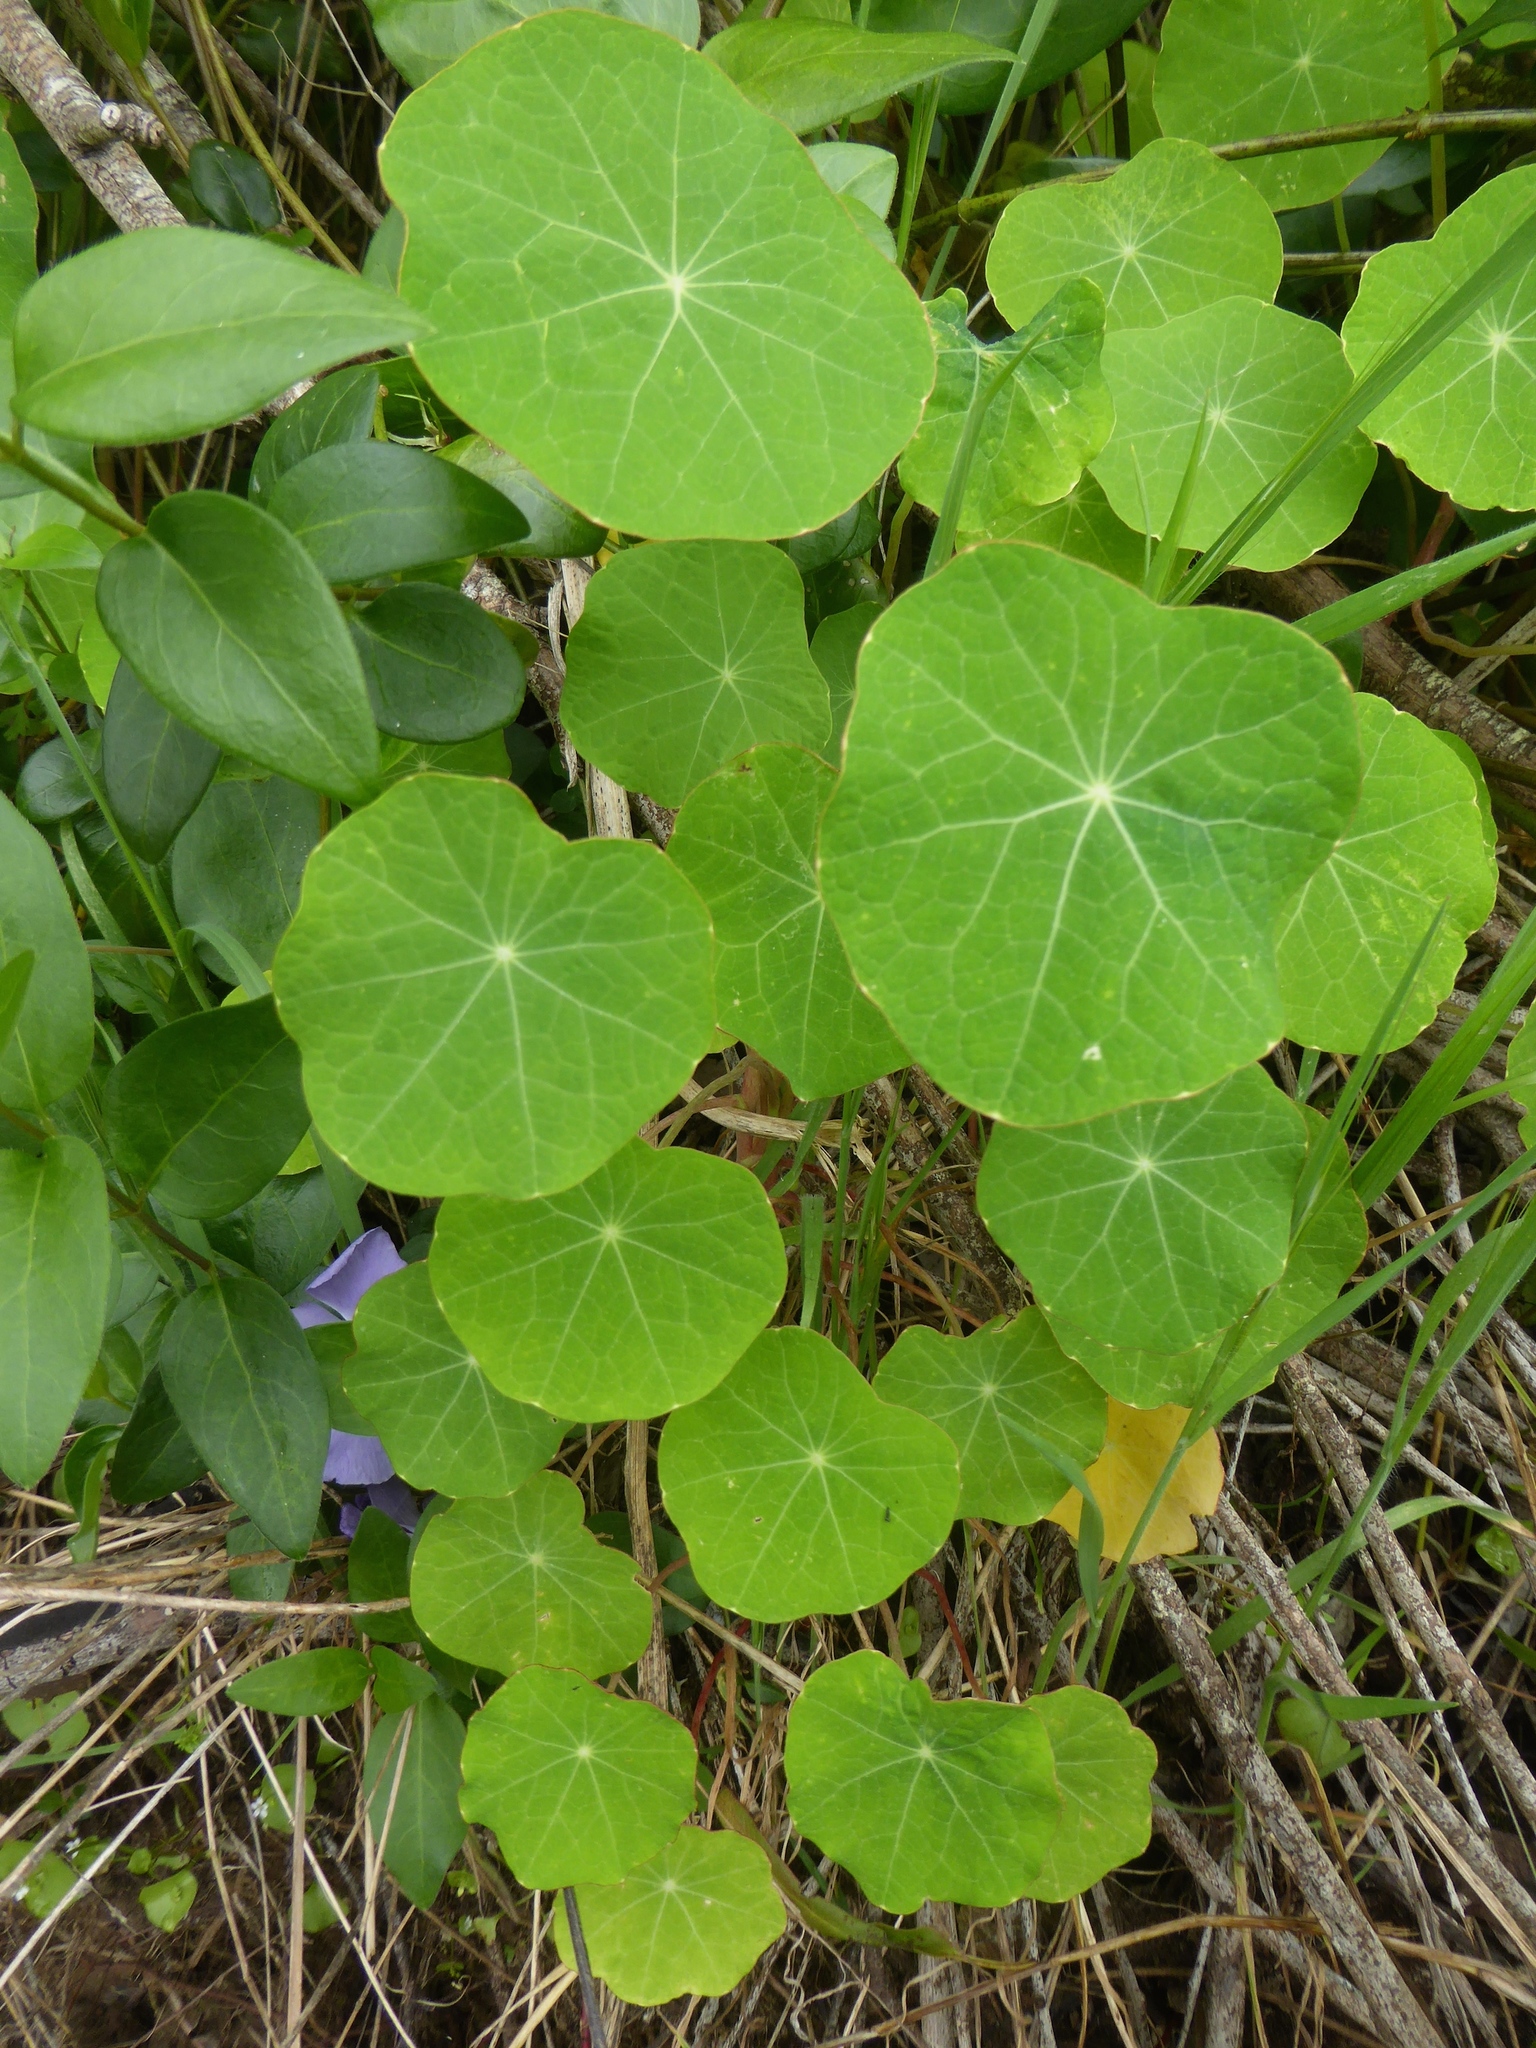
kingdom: Plantae
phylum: Tracheophyta
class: Magnoliopsida
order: Brassicales
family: Tropaeolaceae
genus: Tropaeolum
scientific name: Tropaeolum majus
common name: Nasturtium
